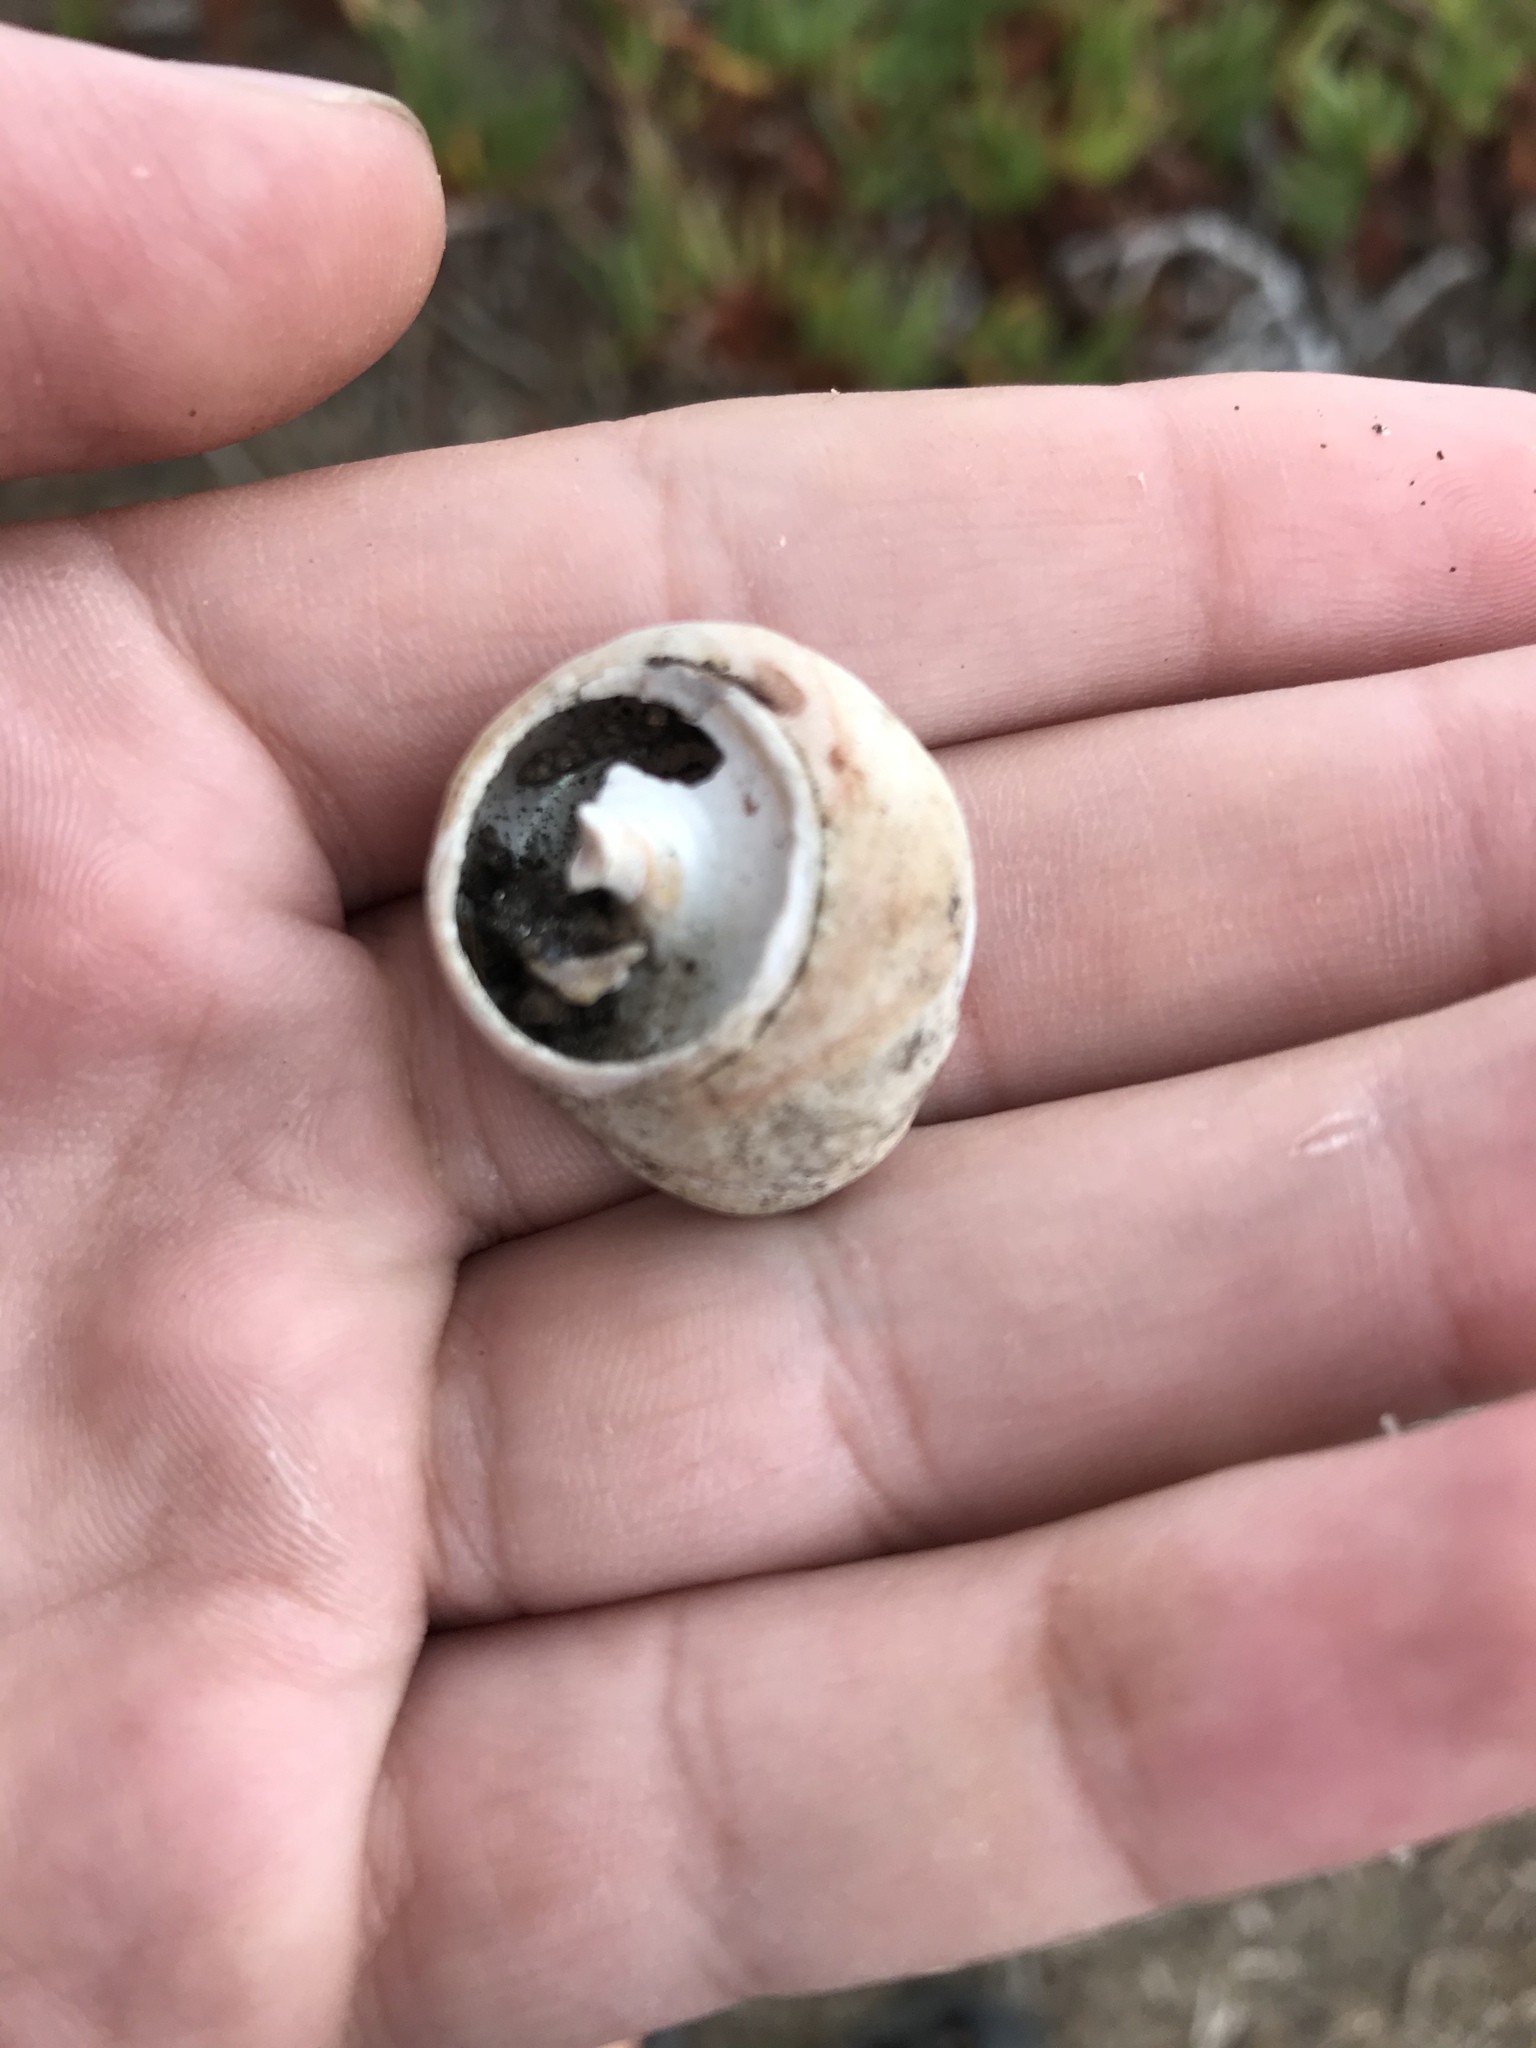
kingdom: Animalia
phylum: Mollusca
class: Gastropoda
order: Trochida
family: Tegulidae
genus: Tegula
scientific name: Tegula brunnea
